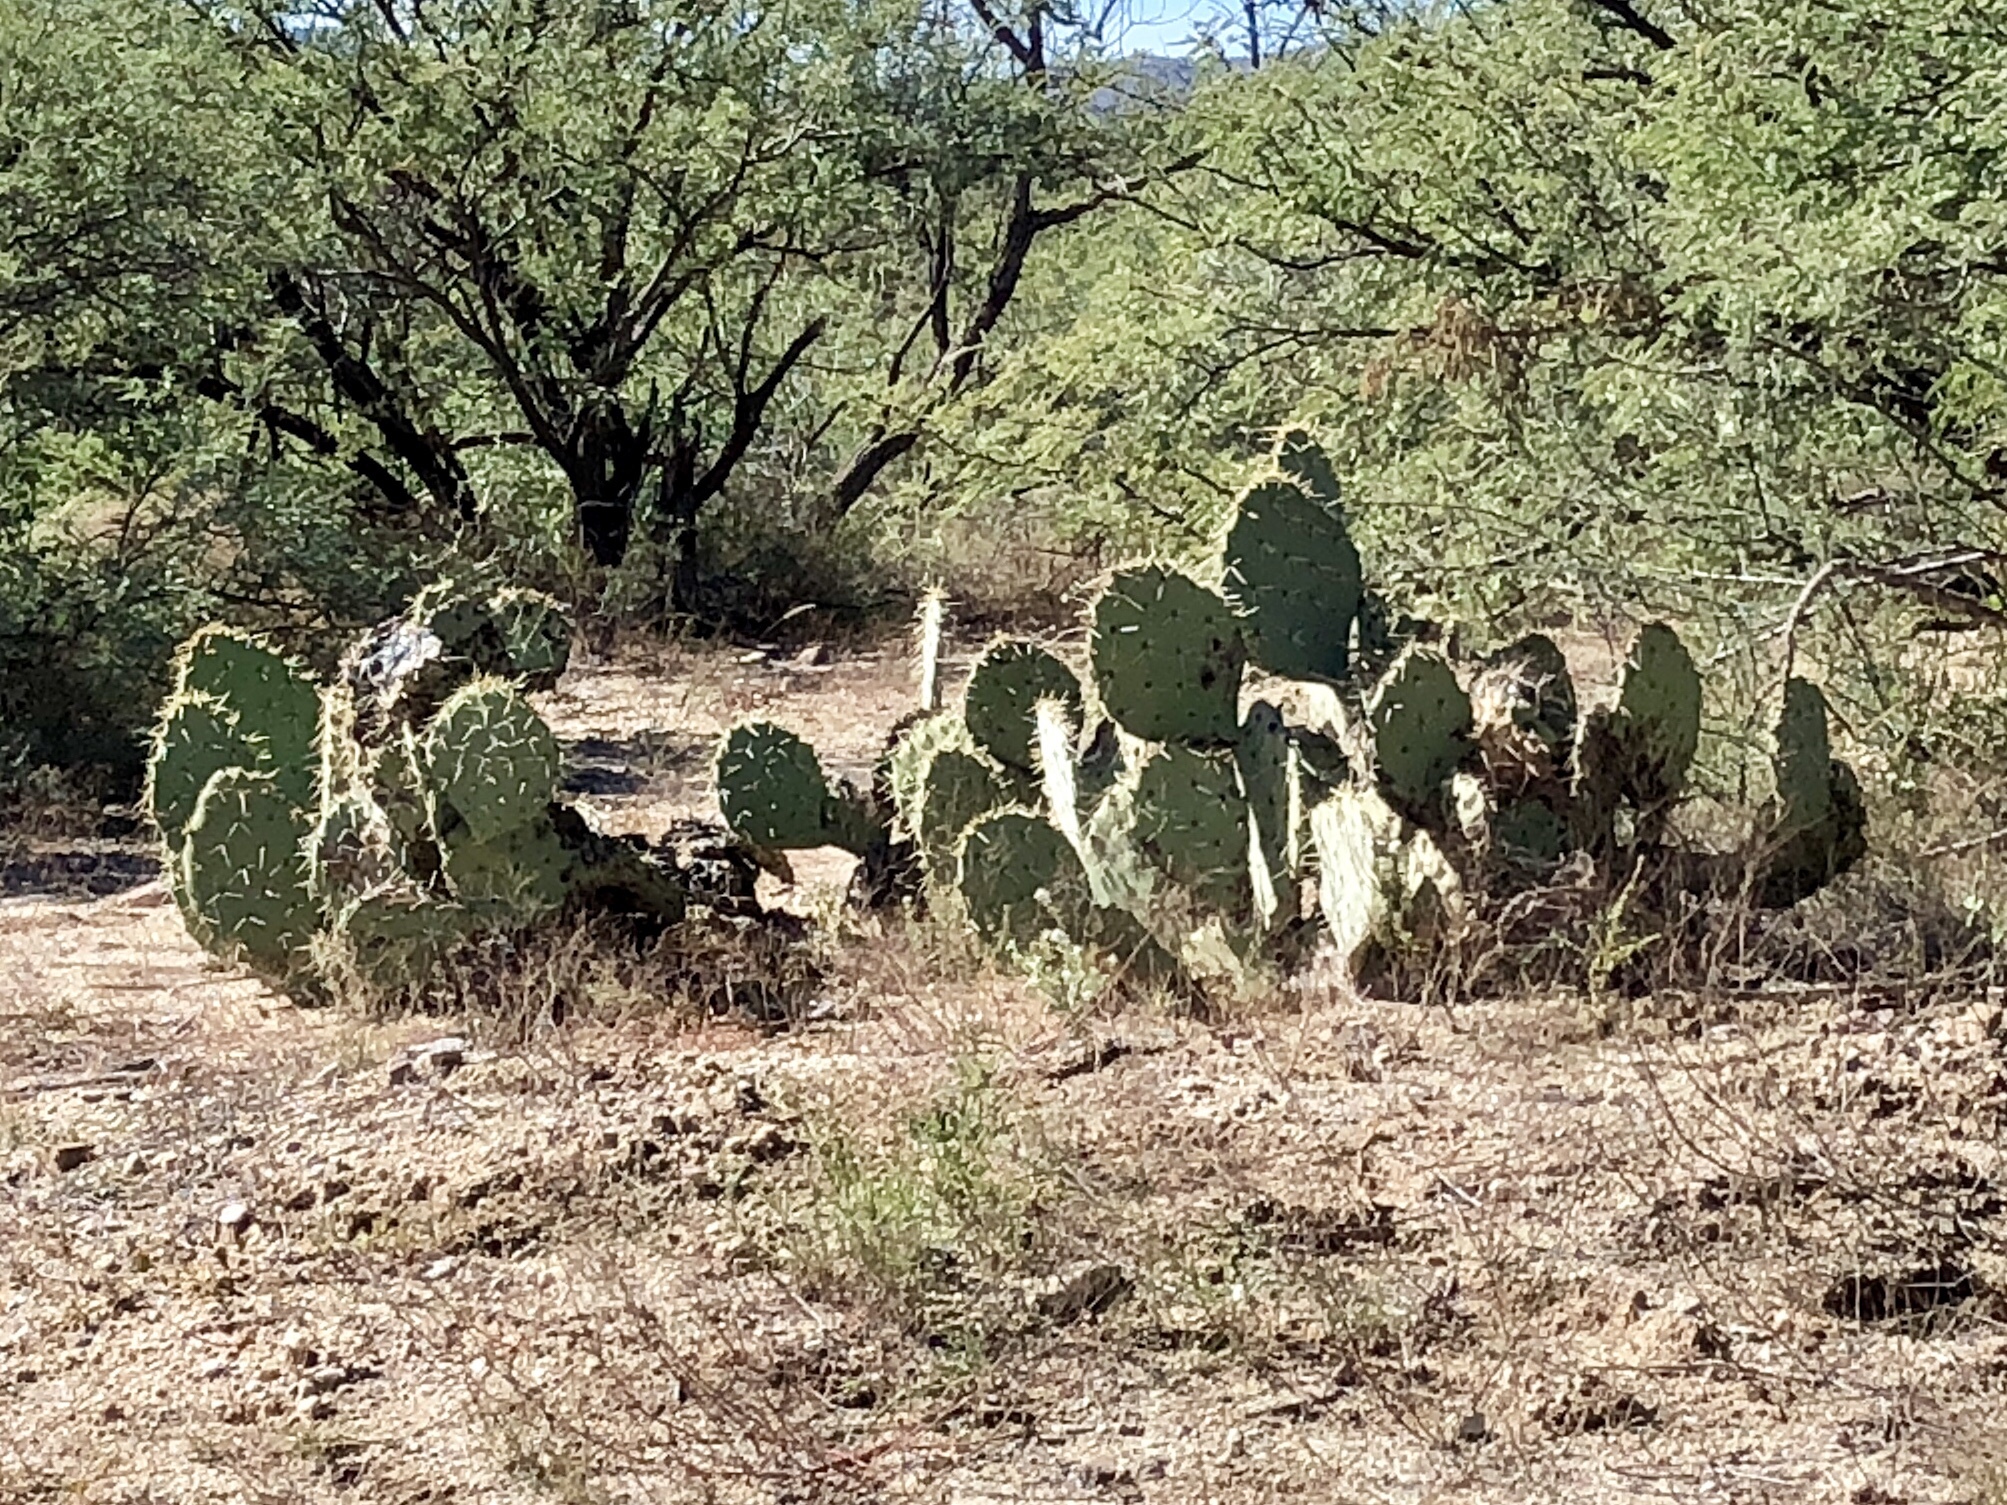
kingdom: Plantae
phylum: Tracheophyta
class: Magnoliopsida
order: Caryophyllales
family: Cactaceae
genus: Opuntia
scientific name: Opuntia engelmannii
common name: Cactus-apple
